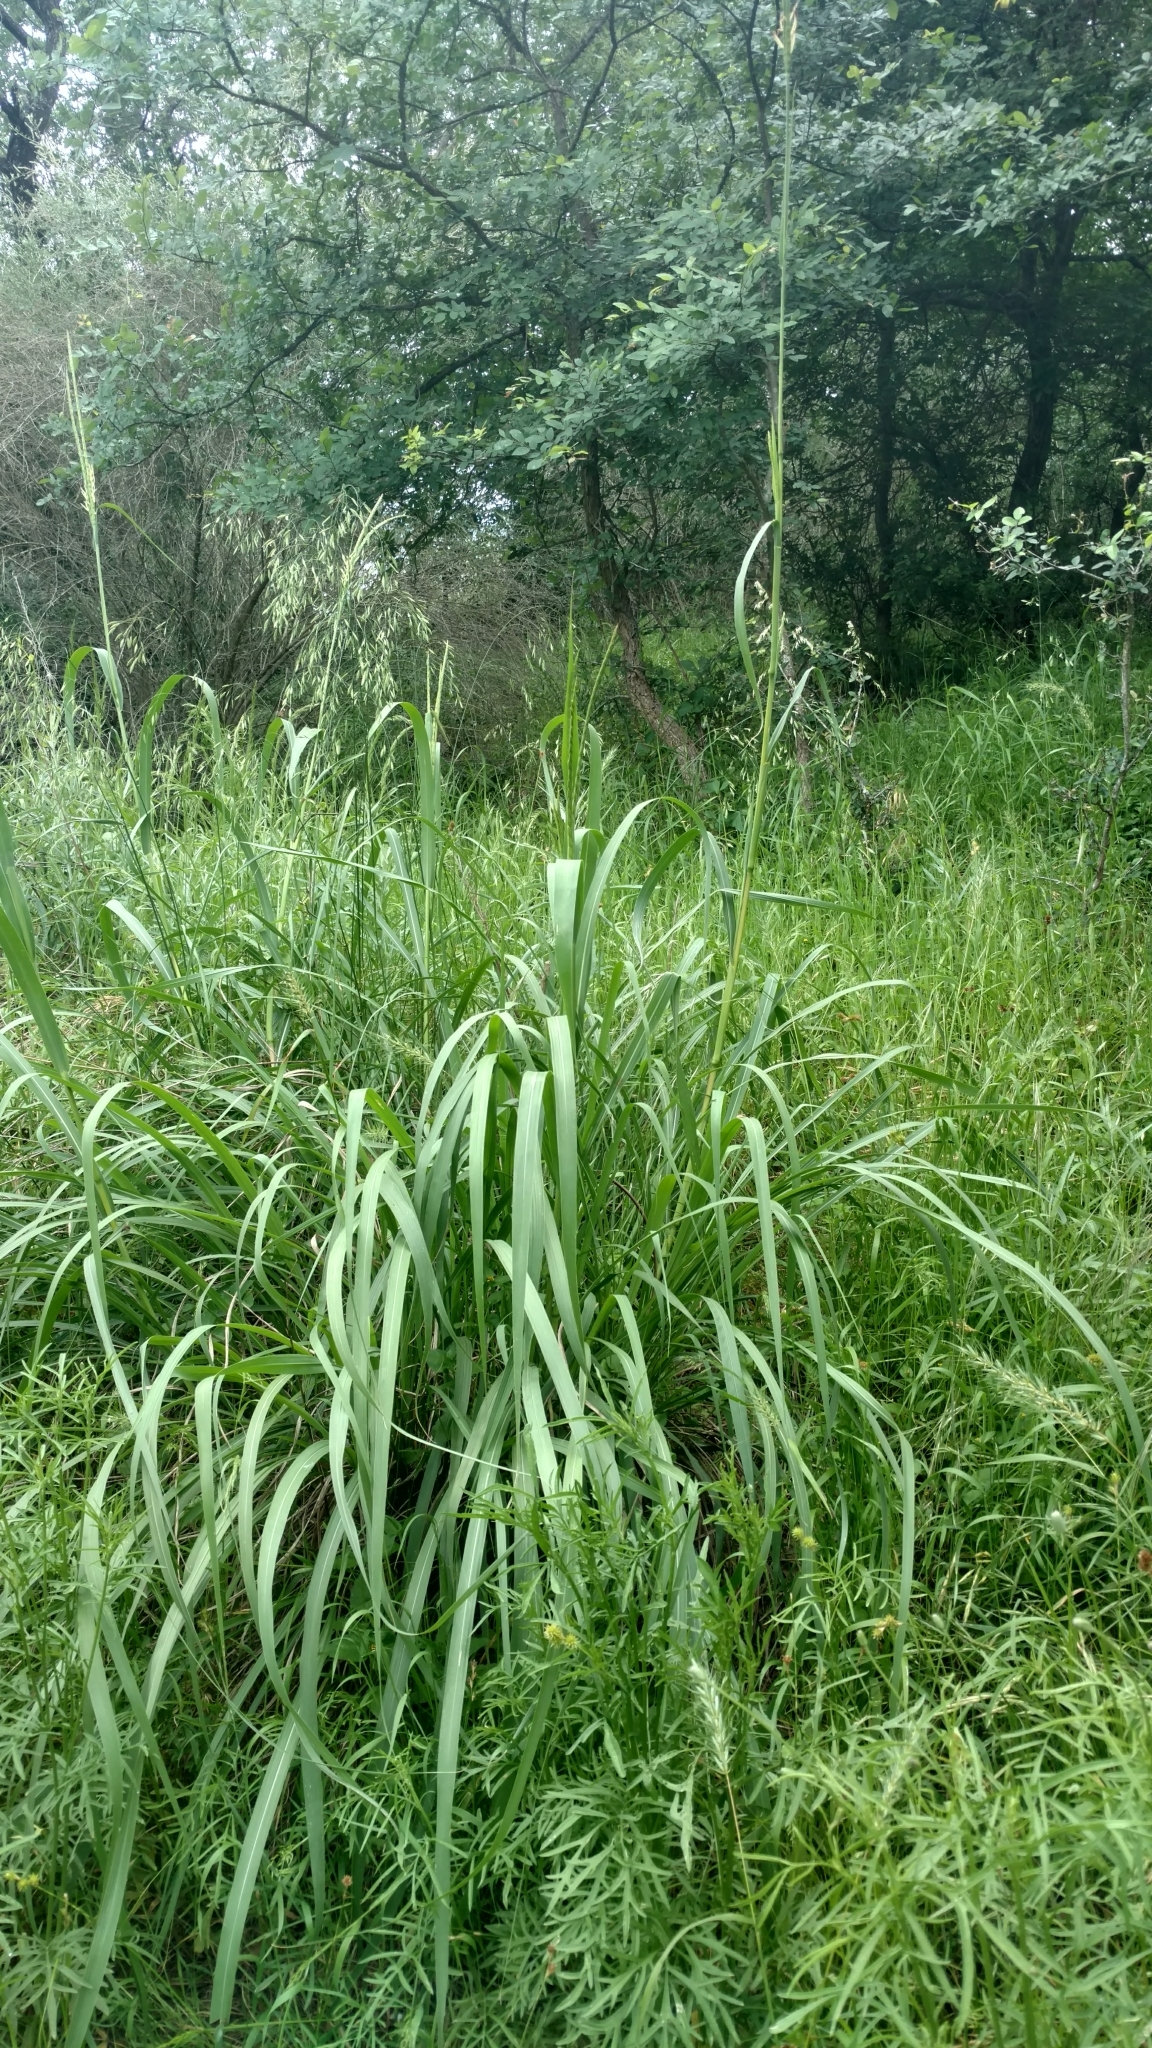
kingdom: Plantae
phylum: Tracheophyta
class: Liliopsida
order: Poales
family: Poaceae
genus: Tripsacum
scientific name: Tripsacum dactyloides
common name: Buffalo-grass
